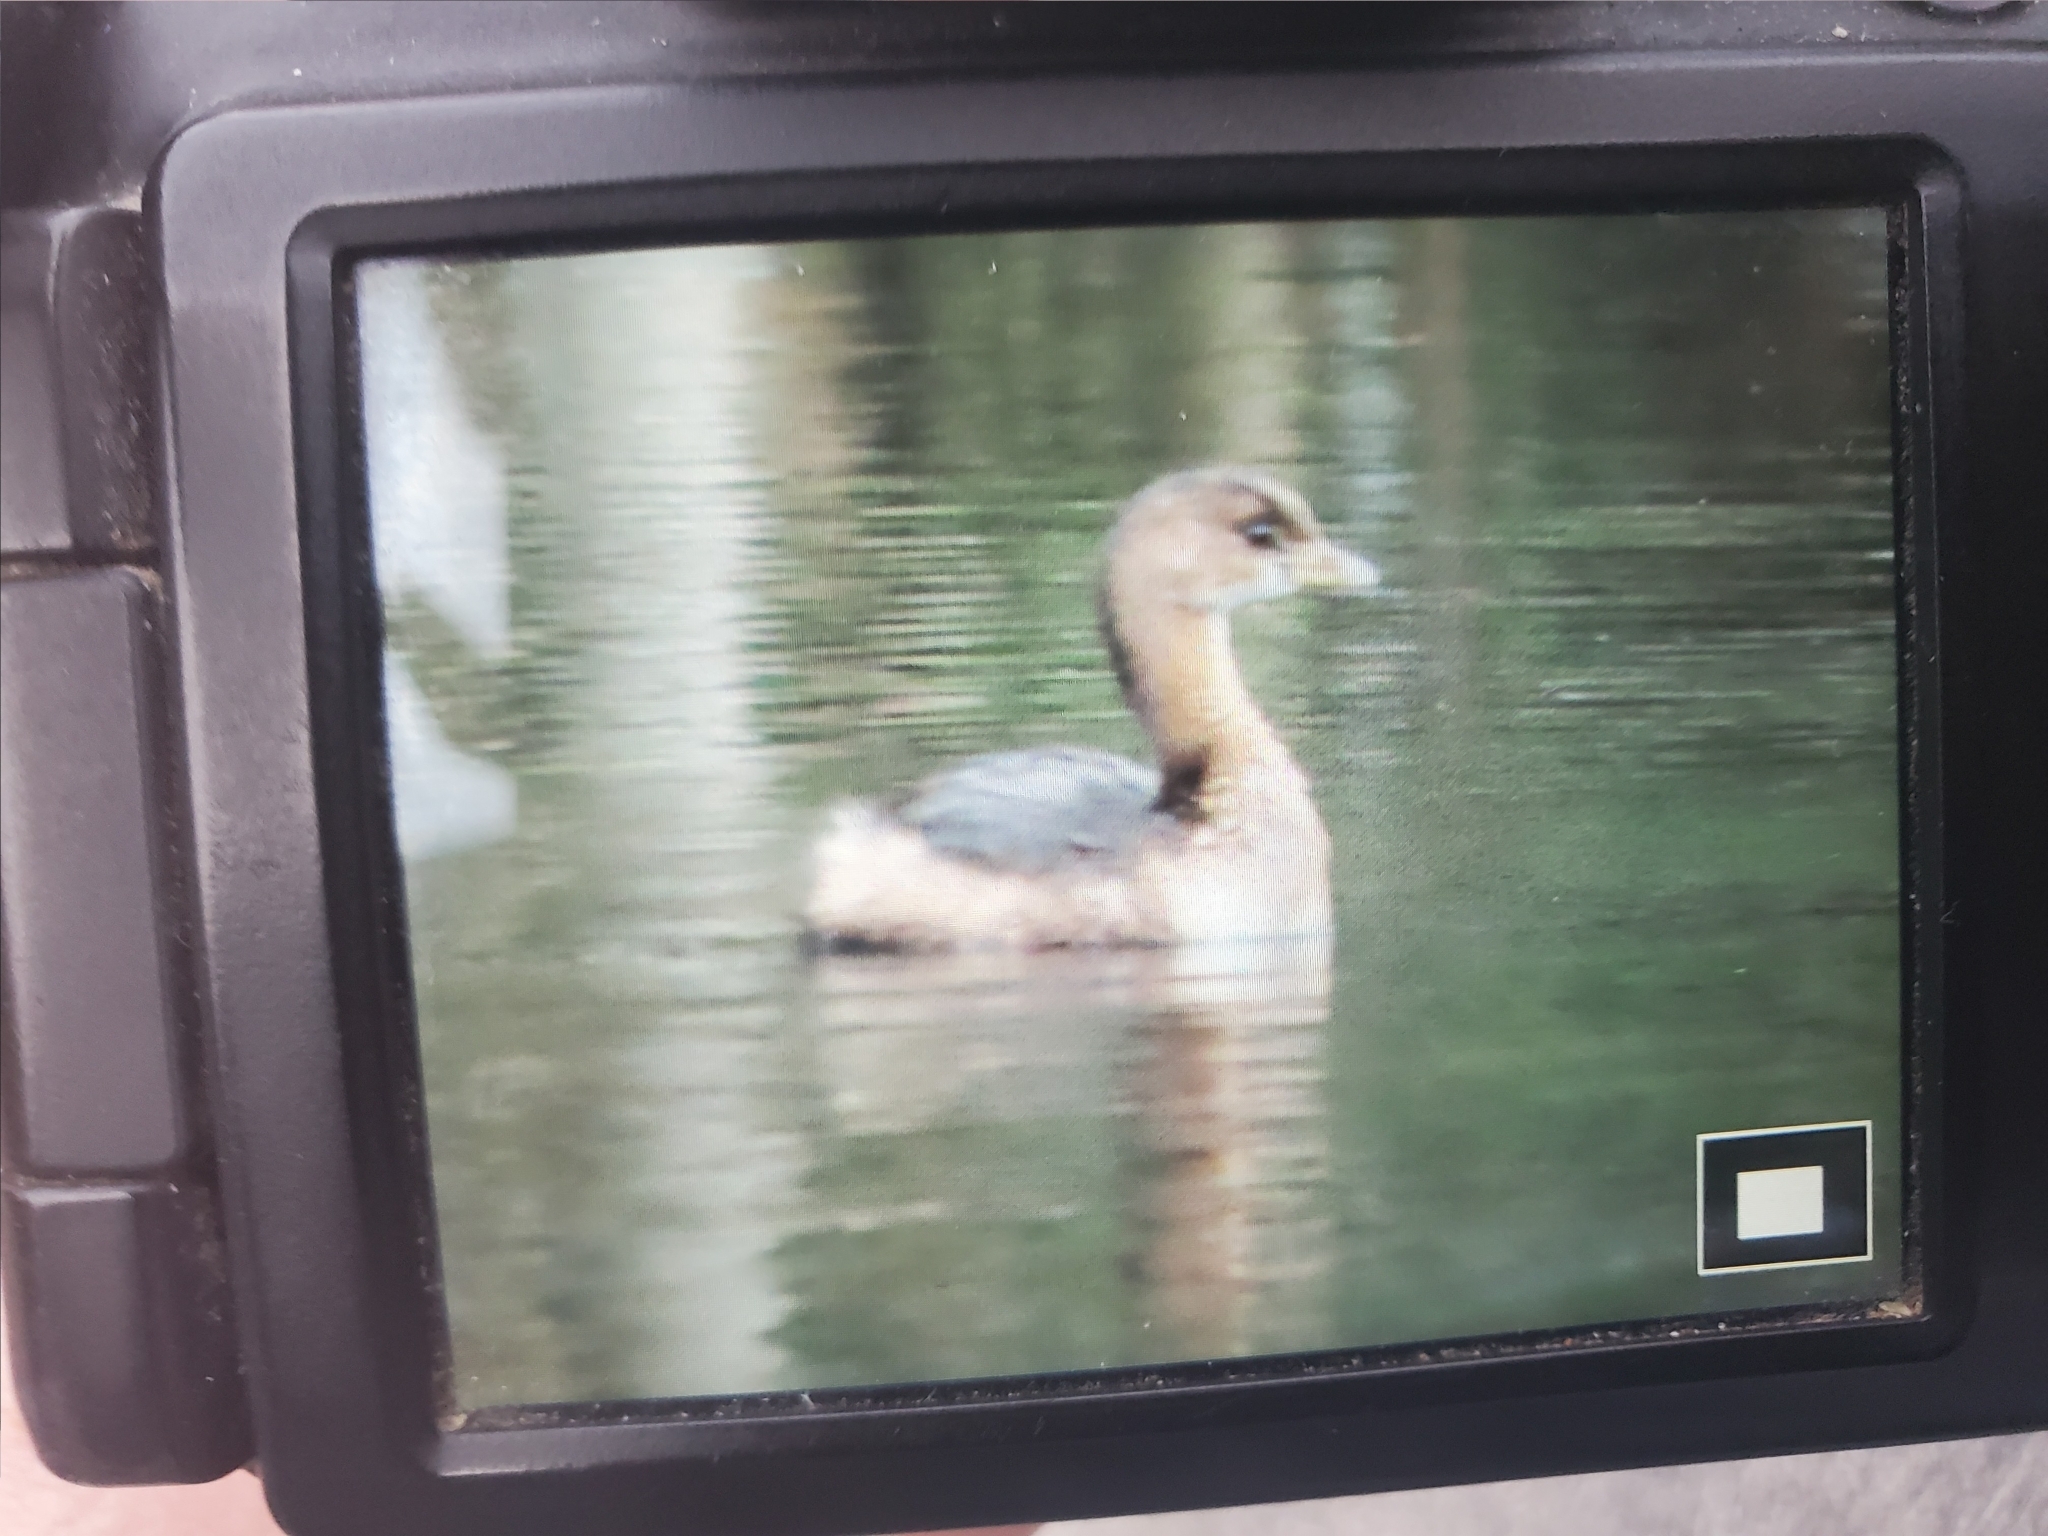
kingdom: Animalia
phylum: Chordata
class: Aves
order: Podicipediformes
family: Podicipedidae
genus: Podilymbus
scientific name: Podilymbus podiceps
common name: Pied-billed grebe
